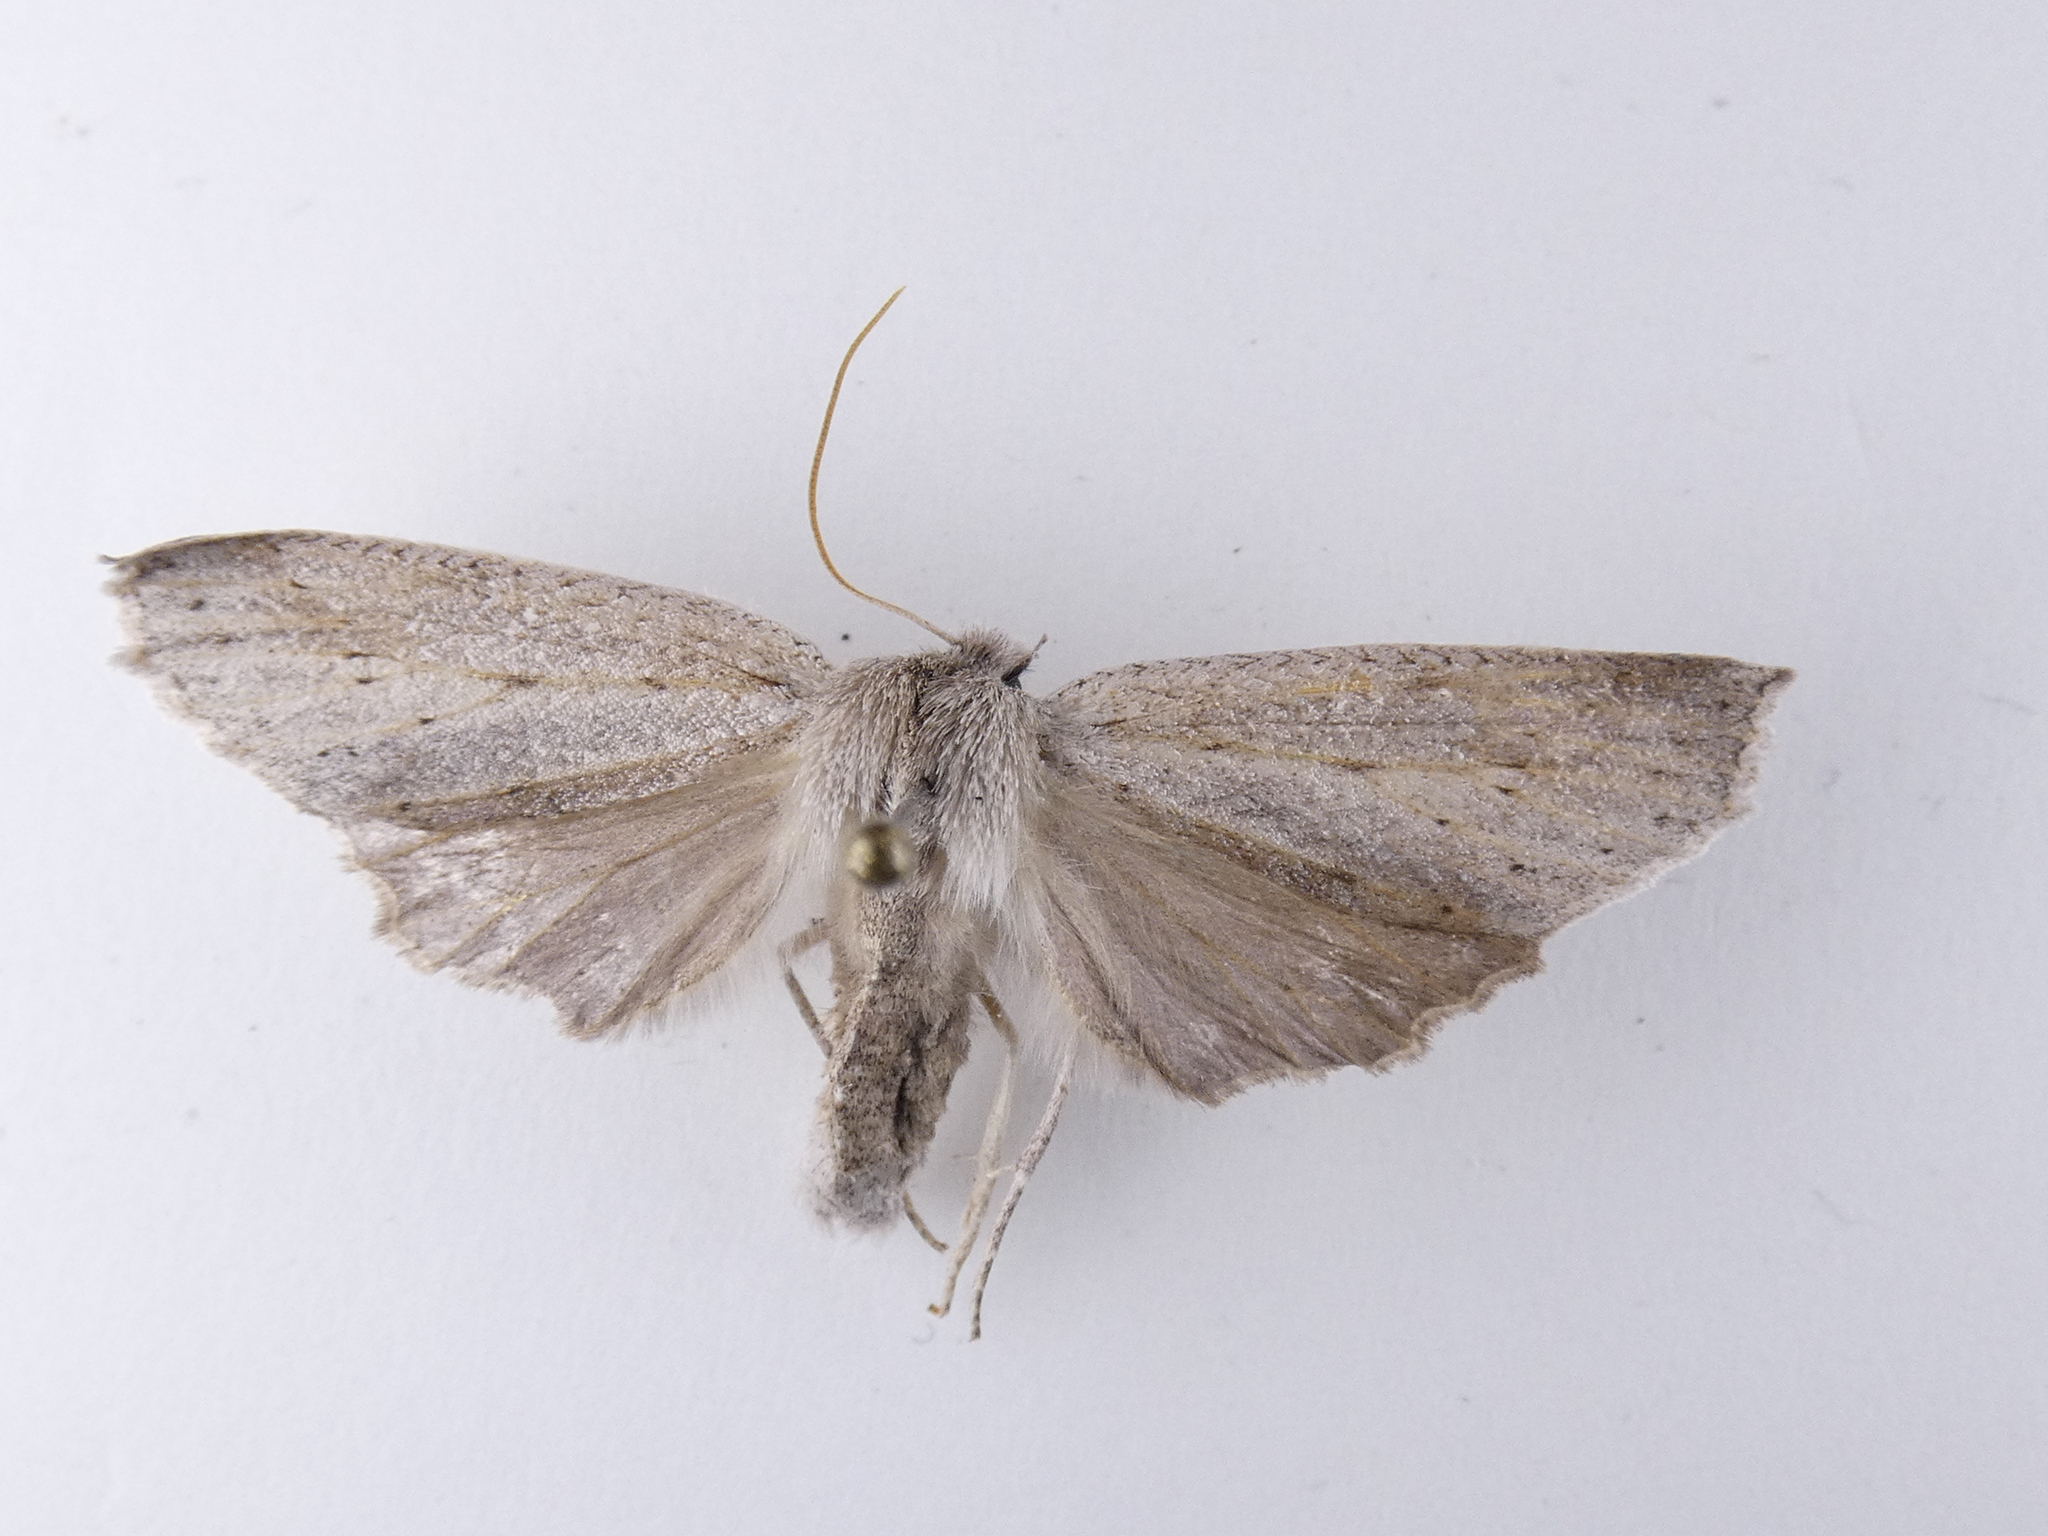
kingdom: Animalia
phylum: Arthropoda
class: Insecta
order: Lepidoptera
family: Geometridae
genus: Declana
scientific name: Declana leptomera
